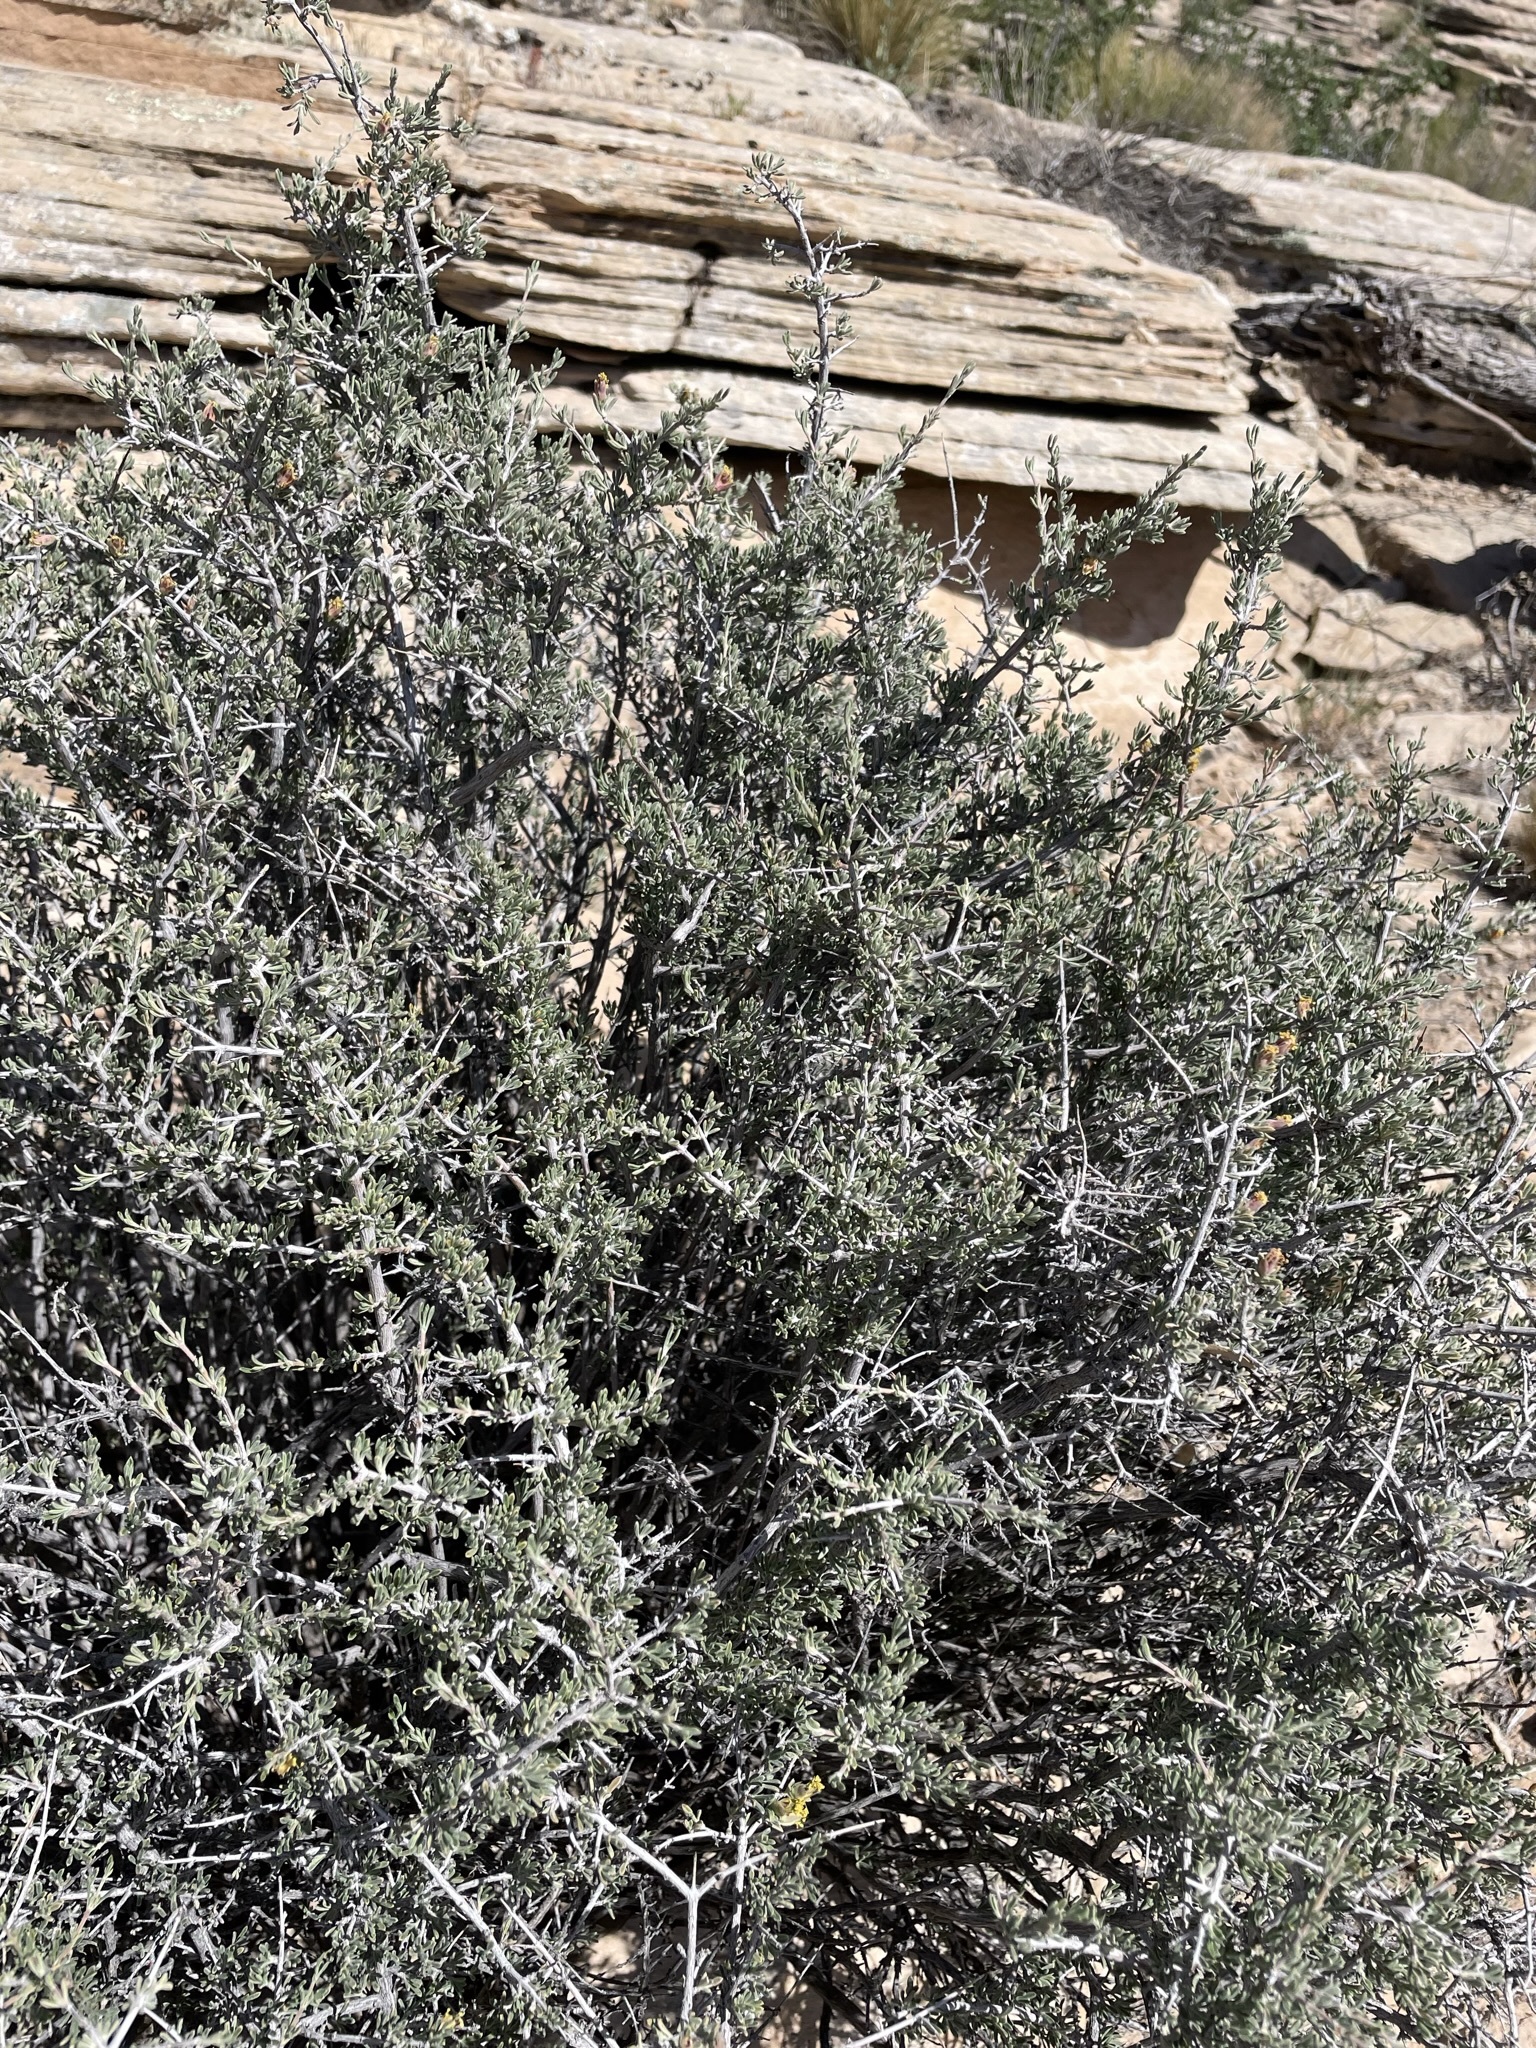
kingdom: Plantae
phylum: Tracheophyta
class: Magnoliopsida
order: Rosales
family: Rosaceae
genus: Coleogyne
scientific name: Coleogyne ramosissima
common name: Blackbrush
